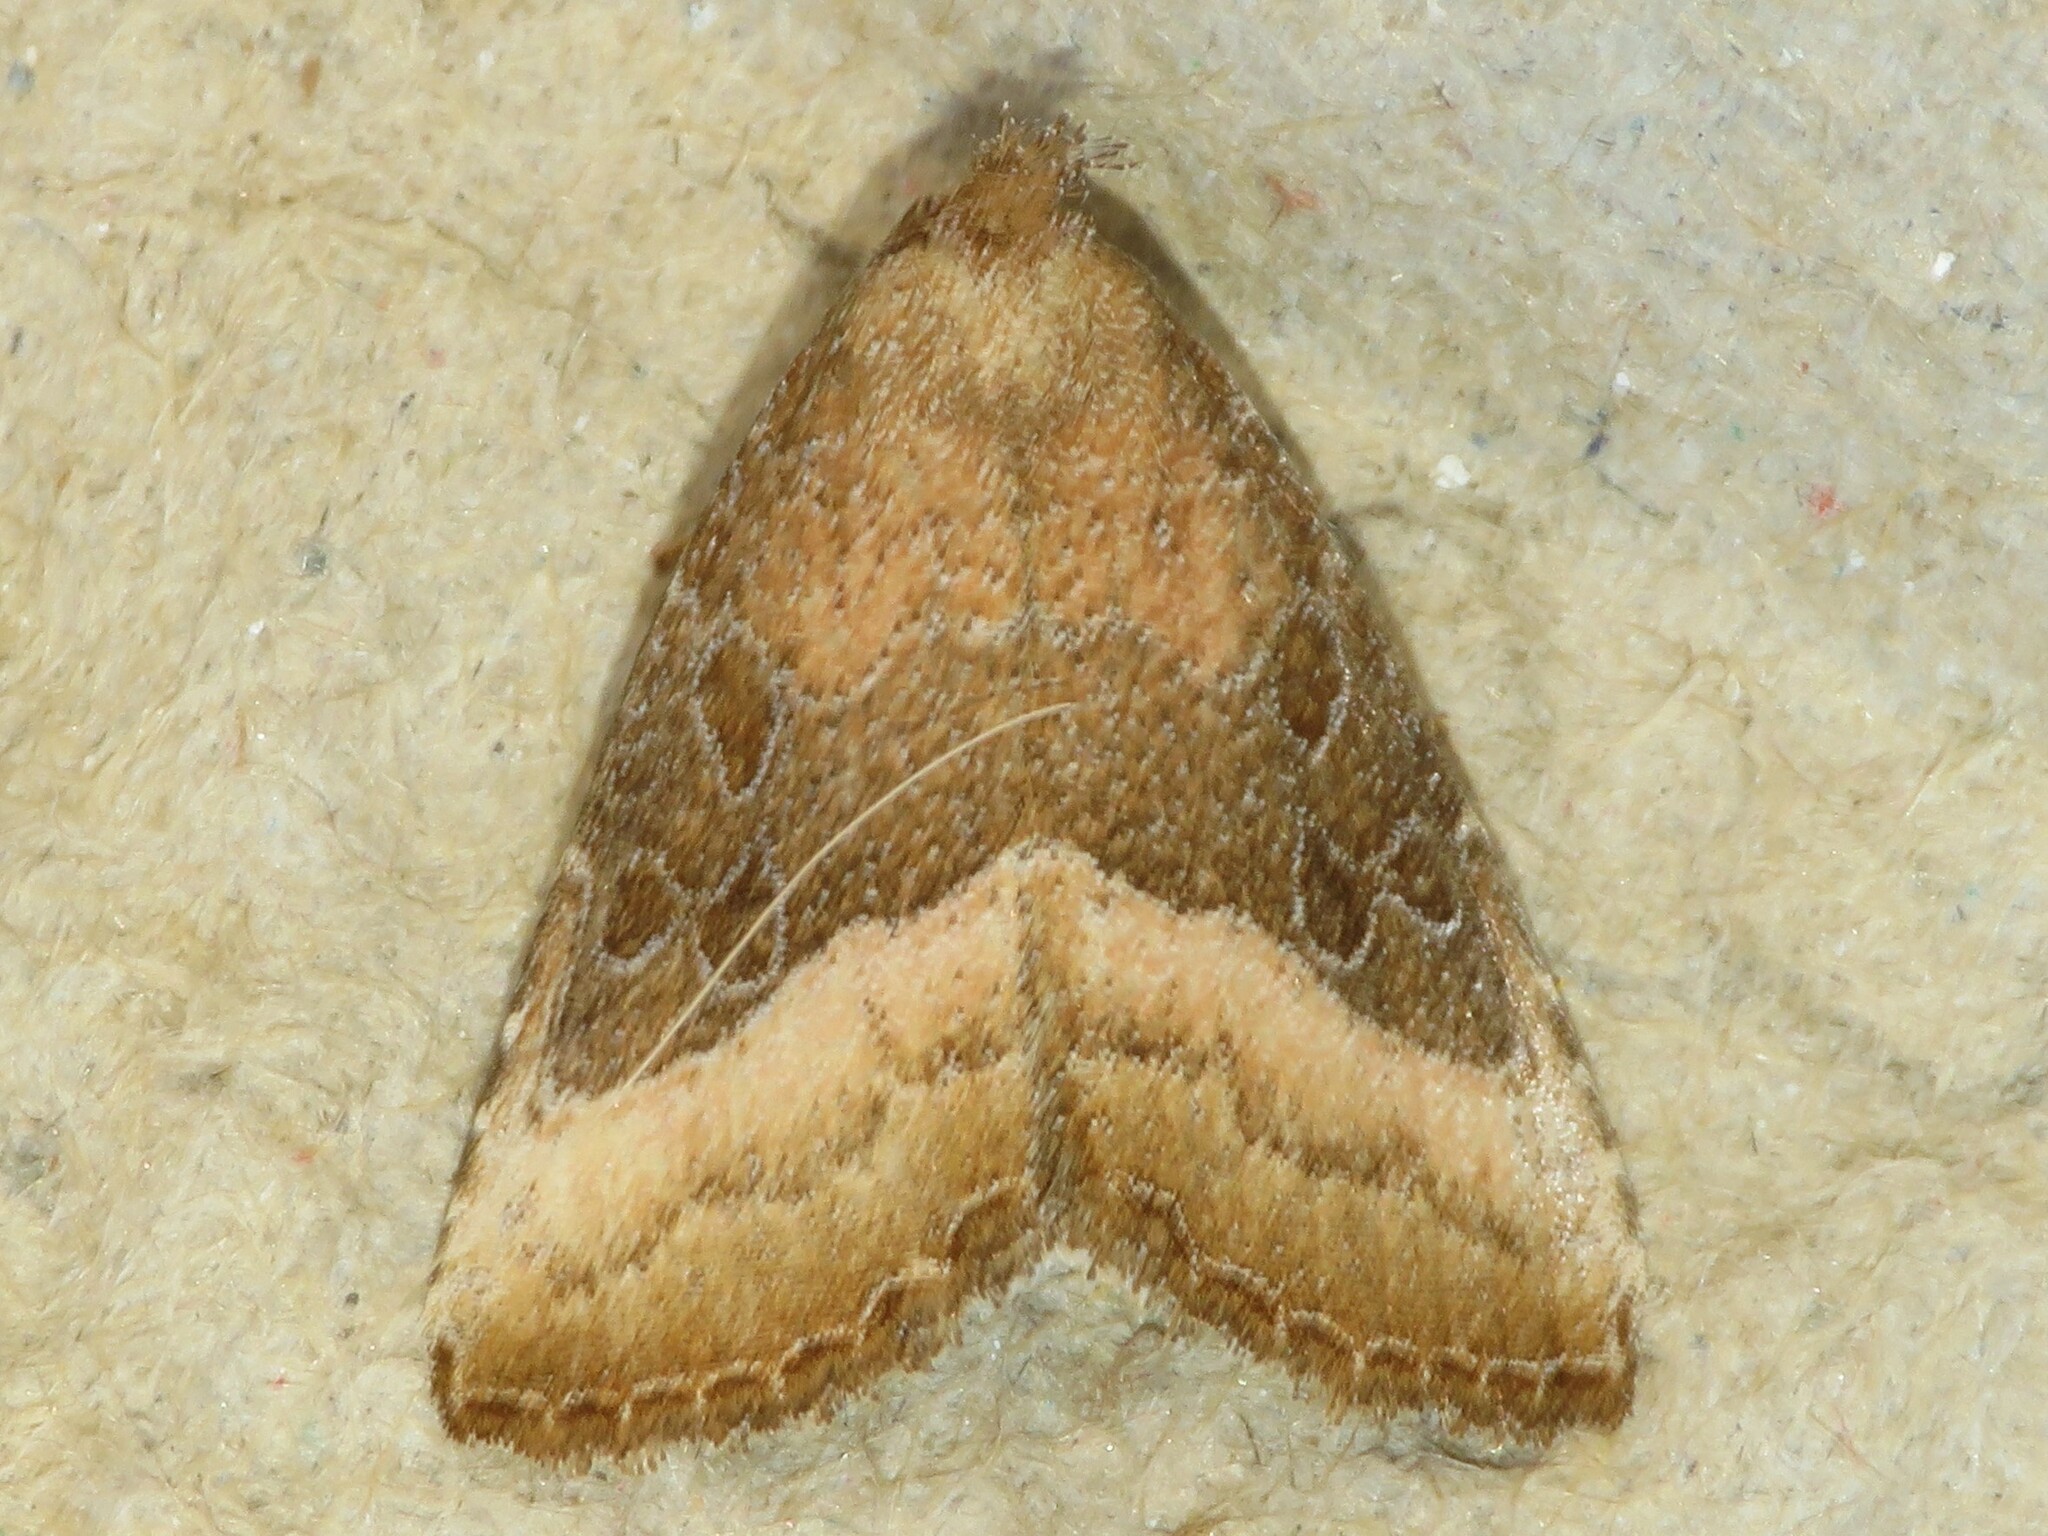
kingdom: Animalia
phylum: Arthropoda
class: Insecta
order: Lepidoptera
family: Noctuidae
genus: Ogdoconta
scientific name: Ogdoconta cinereola
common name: Common pinkband
